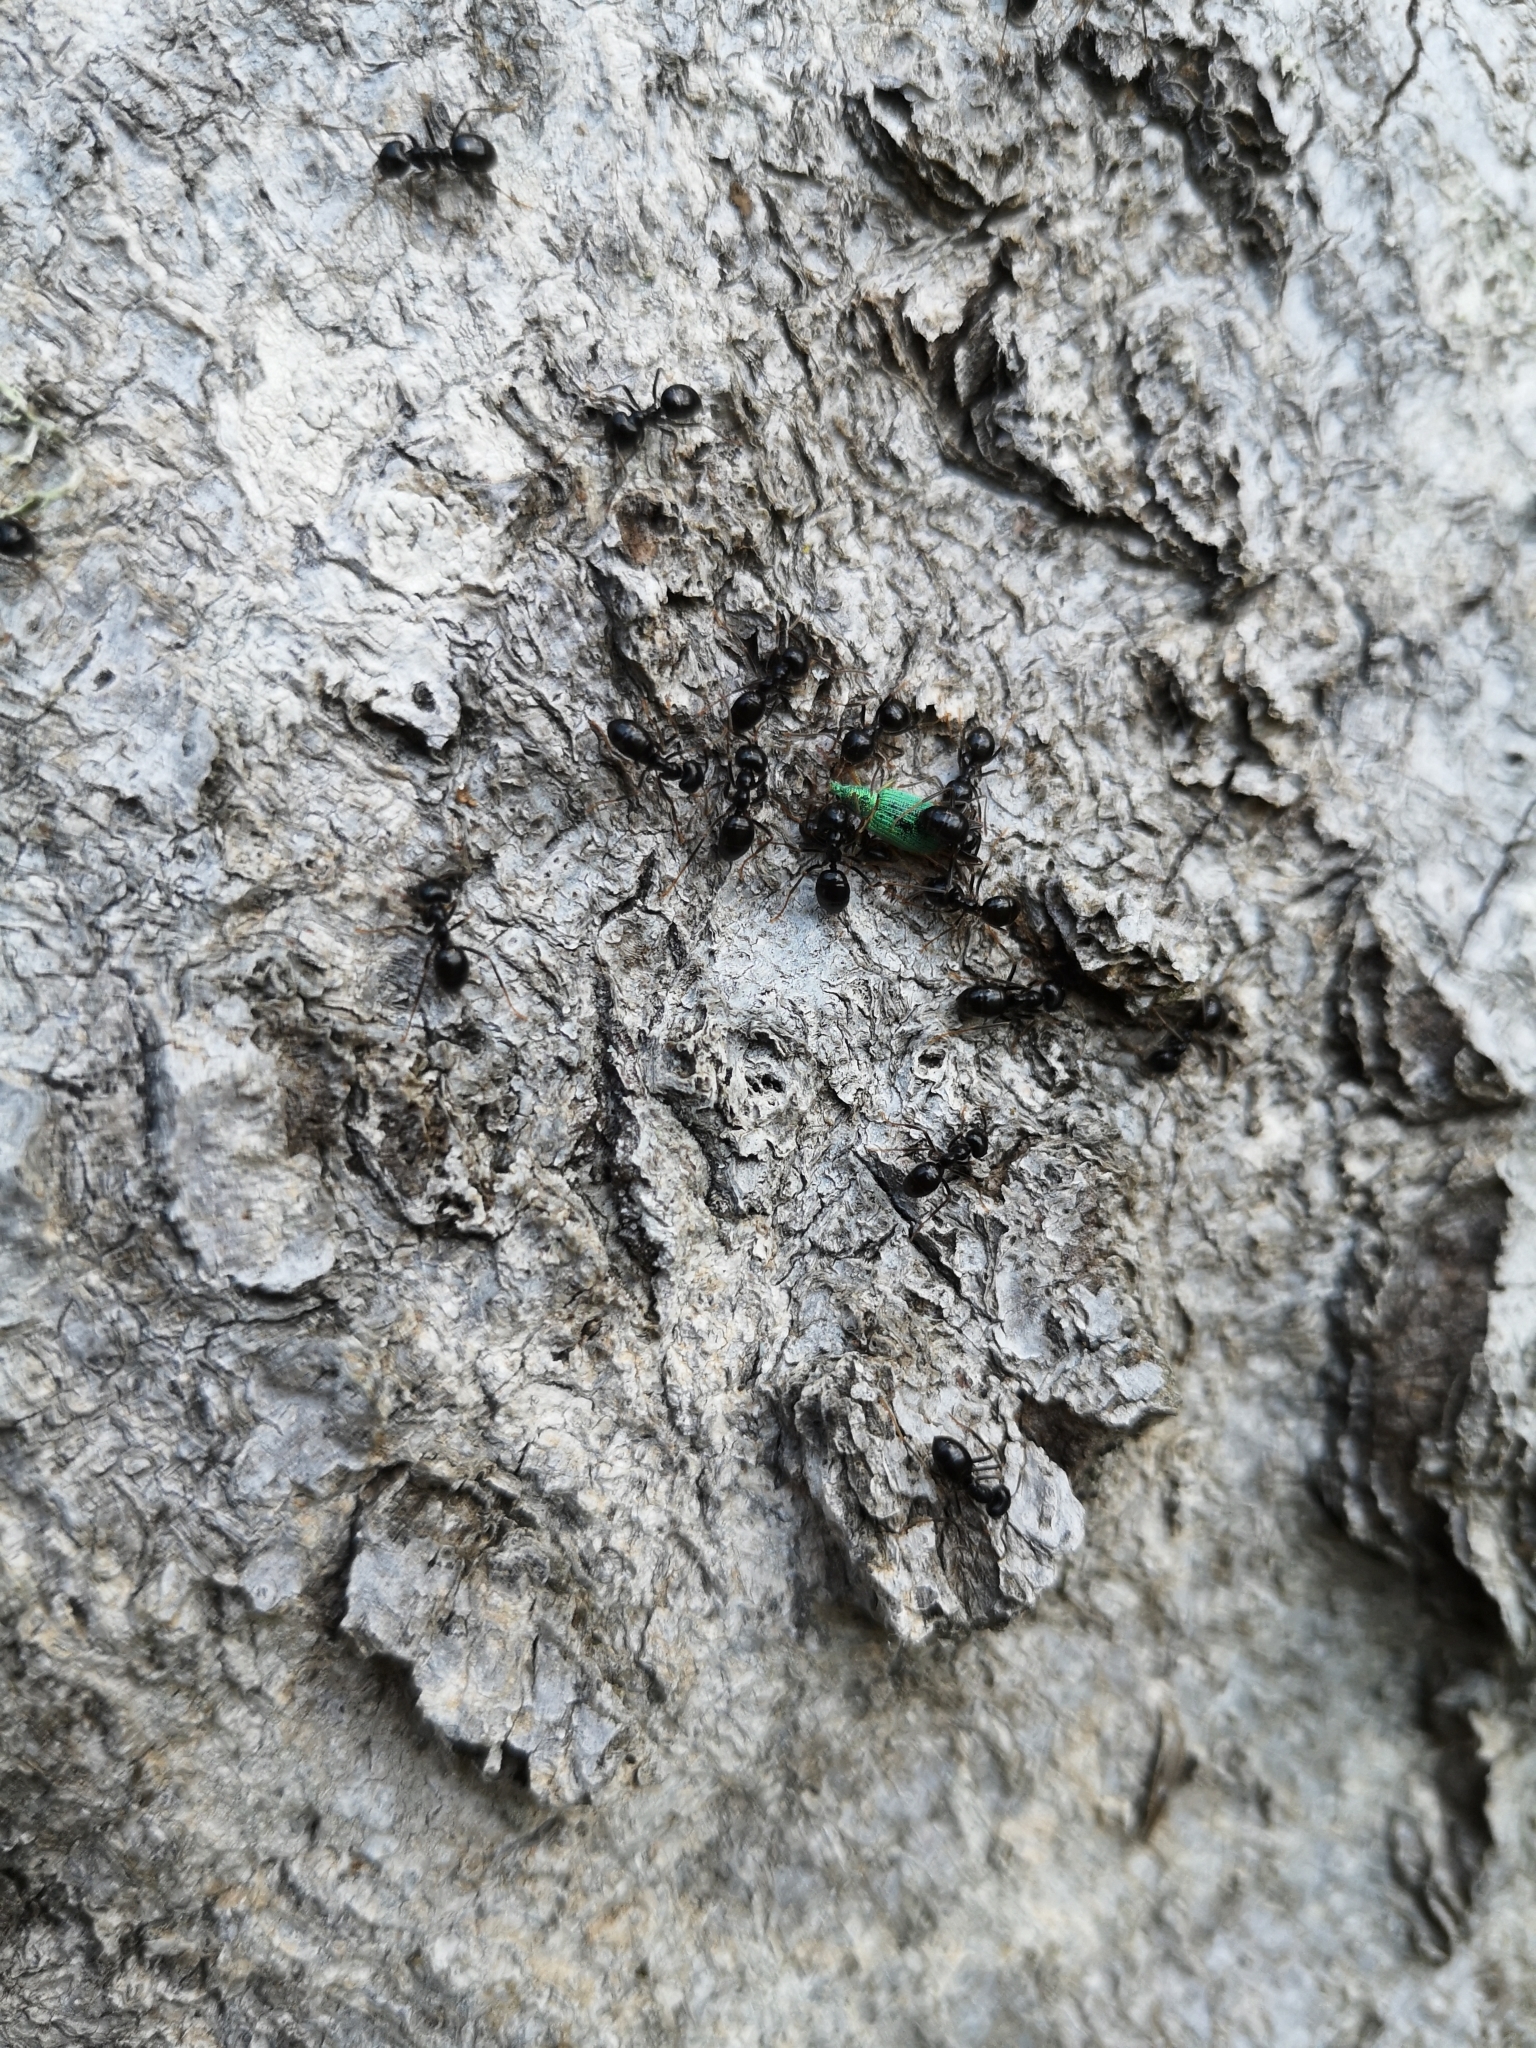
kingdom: Animalia
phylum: Arthropoda
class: Insecta
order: Hymenoptera
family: Formicidae
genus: Lasius
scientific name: Lasius fuliginosus
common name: Jet ant
